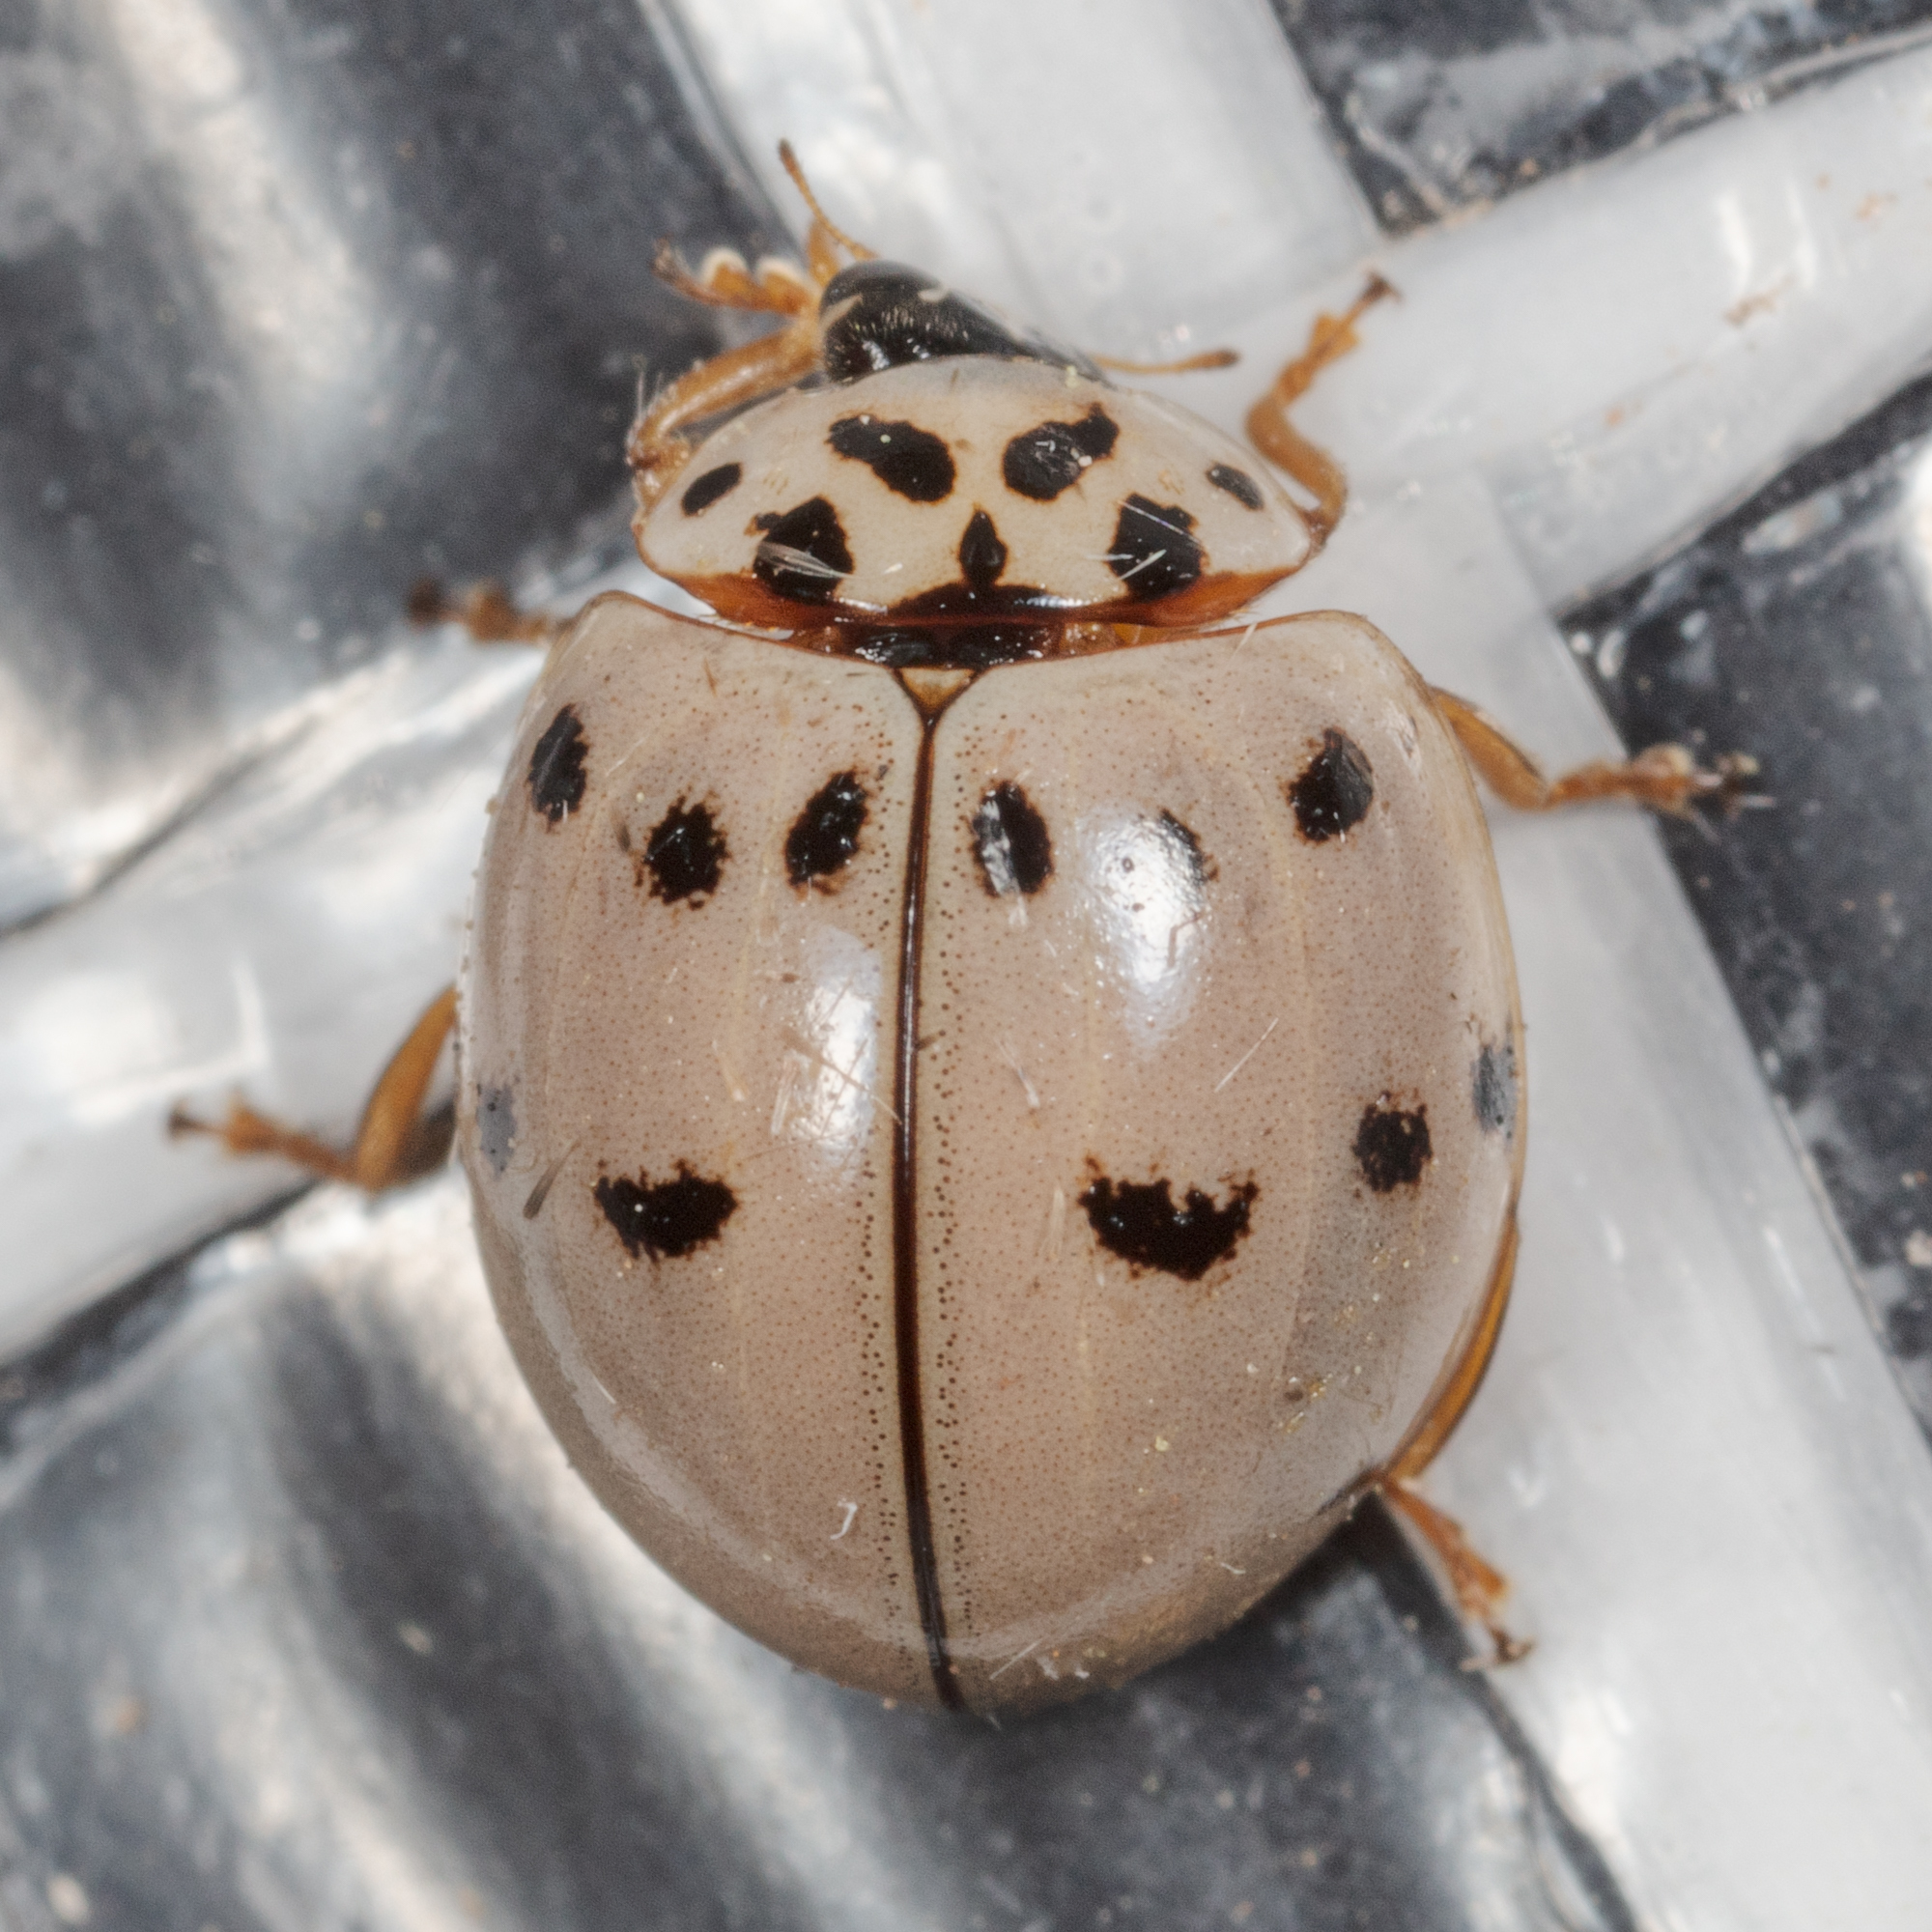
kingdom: Animalia
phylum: Arthropoda
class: Insecta
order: Coleoptera
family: Coccinellidae
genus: Olla
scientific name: Olla v-nigrum
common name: Ashy gray lady beetle
